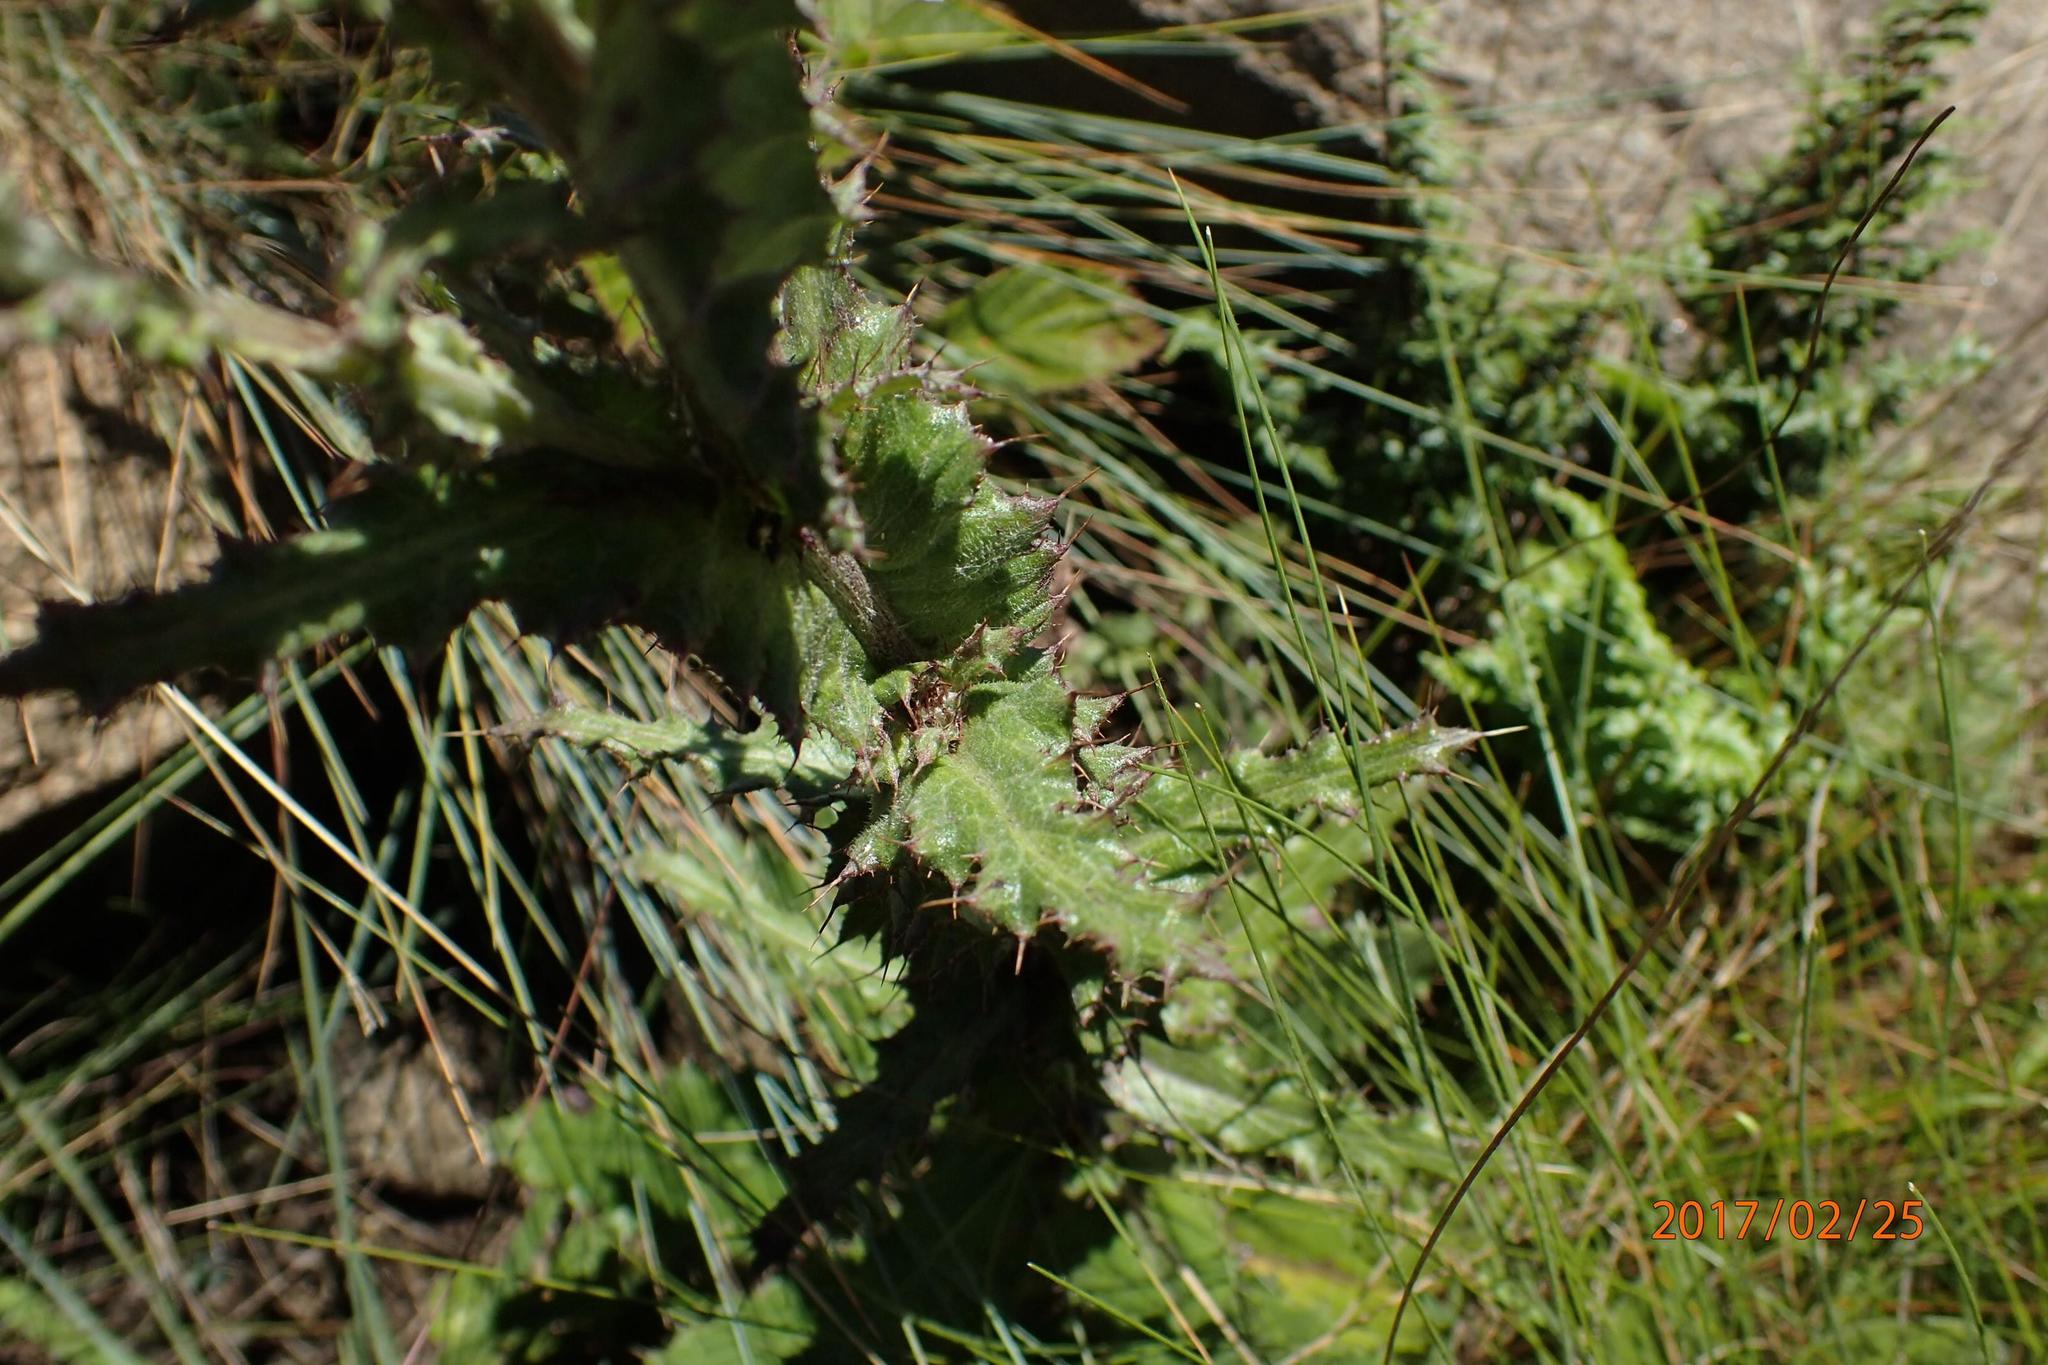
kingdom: Plantae
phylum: Tracheophyta
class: Magnoliopsida
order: Asterales
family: Asteraceae
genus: Berkheya
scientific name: Berkheya maritima
